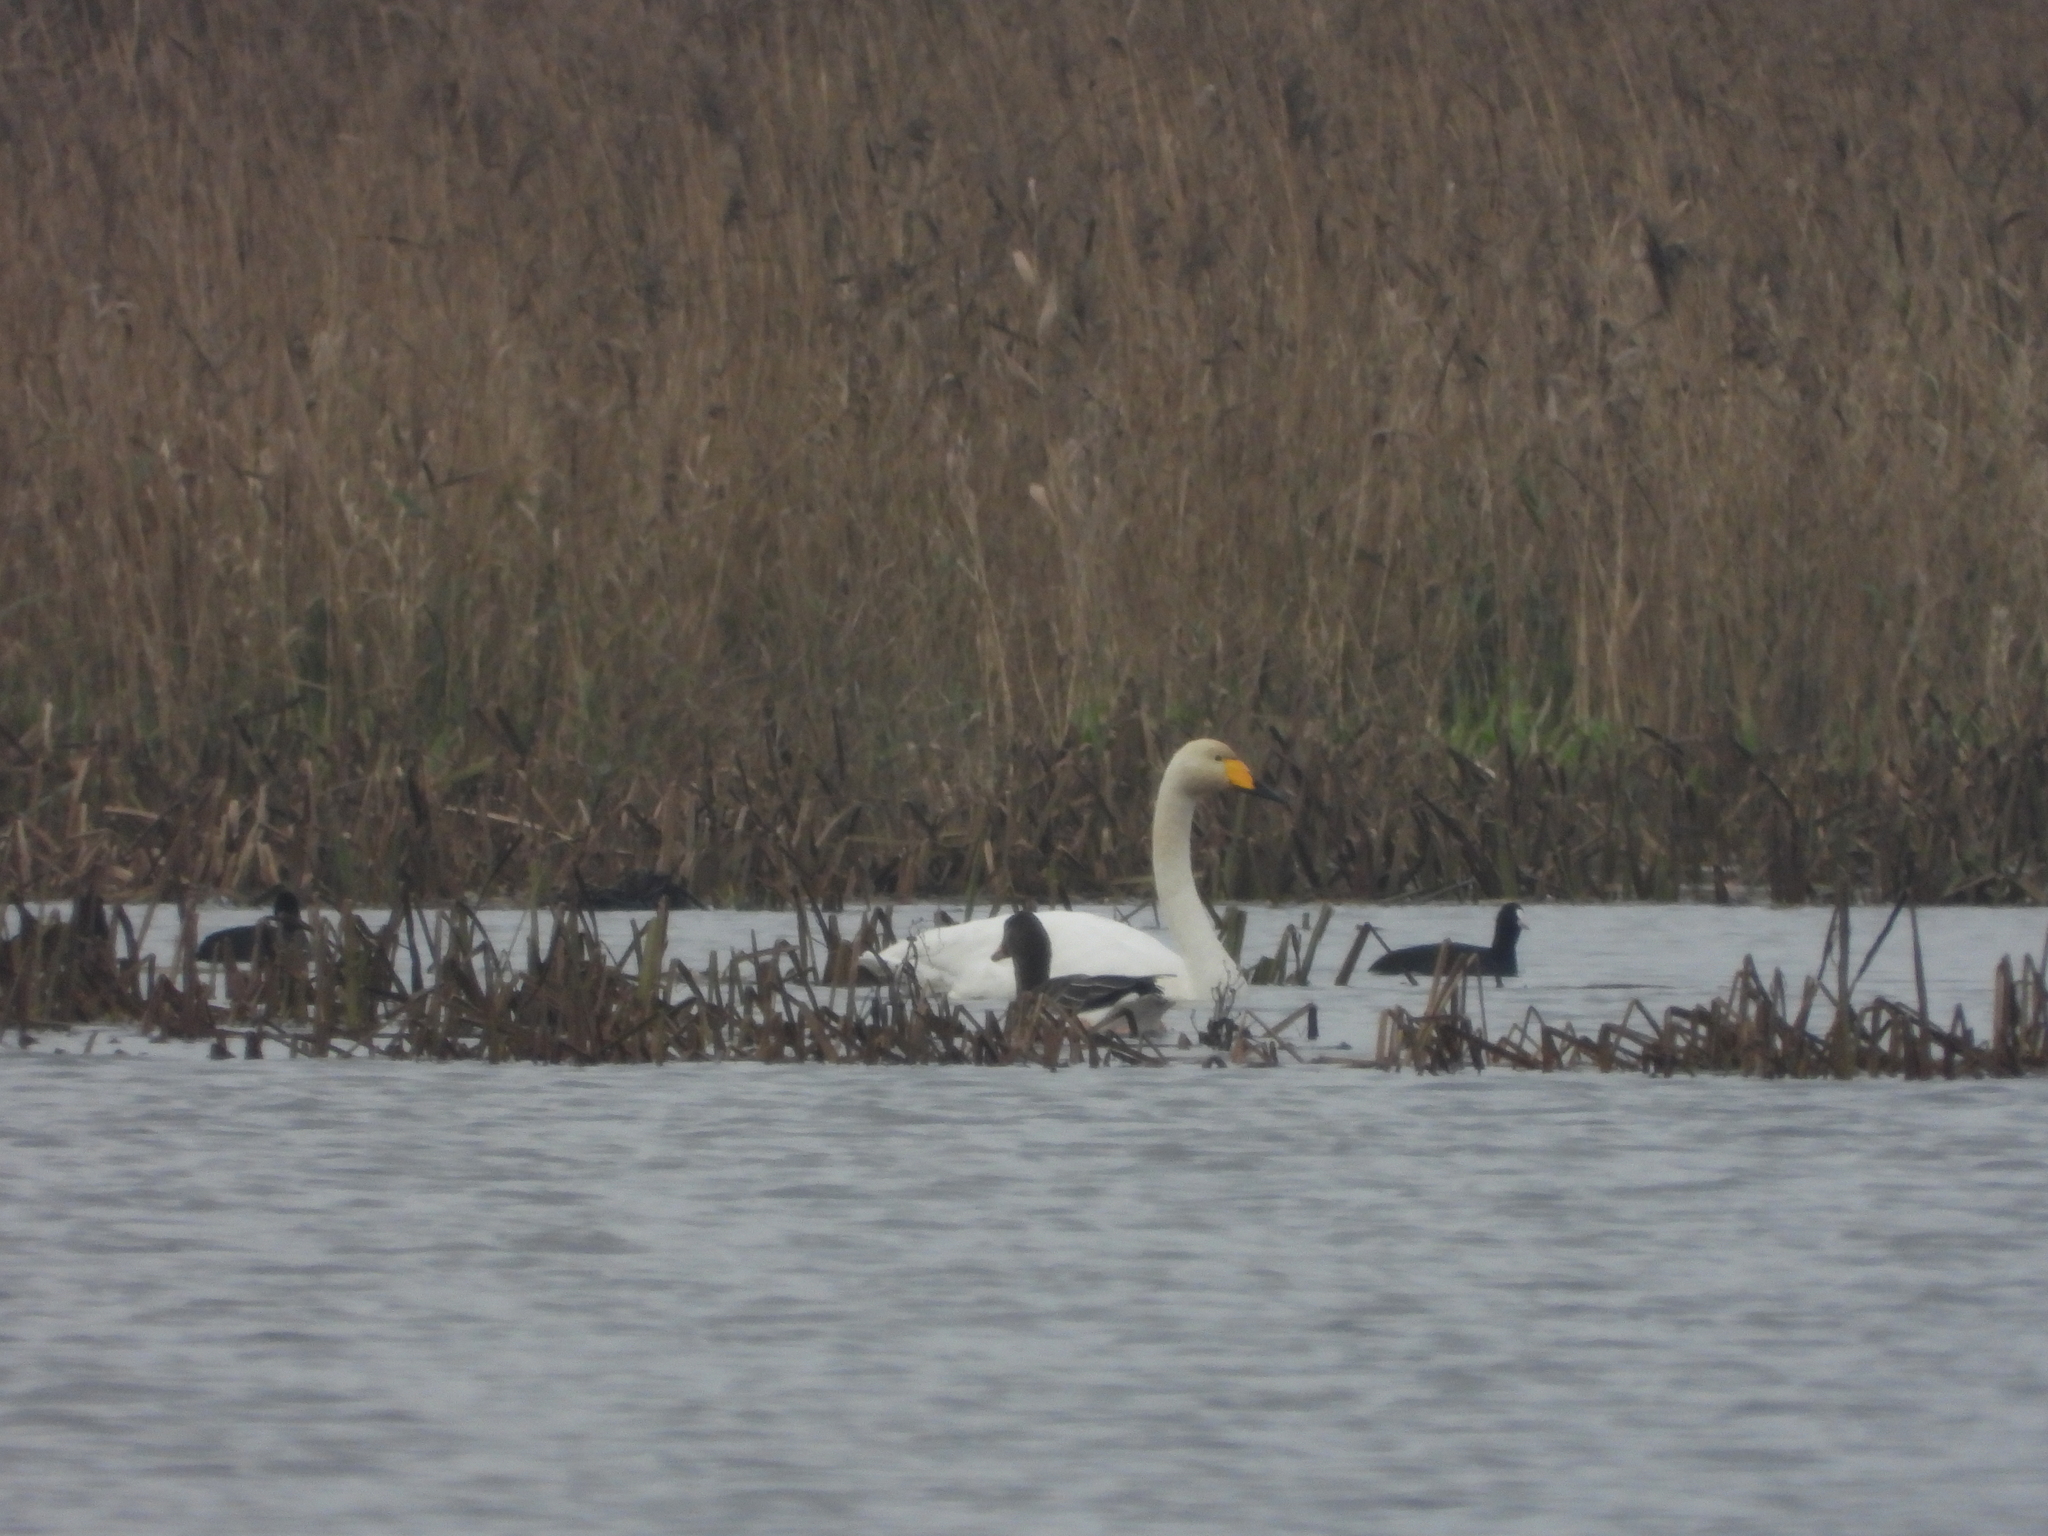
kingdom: Animalia
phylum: Chordata
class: Aves
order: Anseriformes
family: Anatidae
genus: Cygnus
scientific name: Cygnus cygnus
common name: Whooper swan
